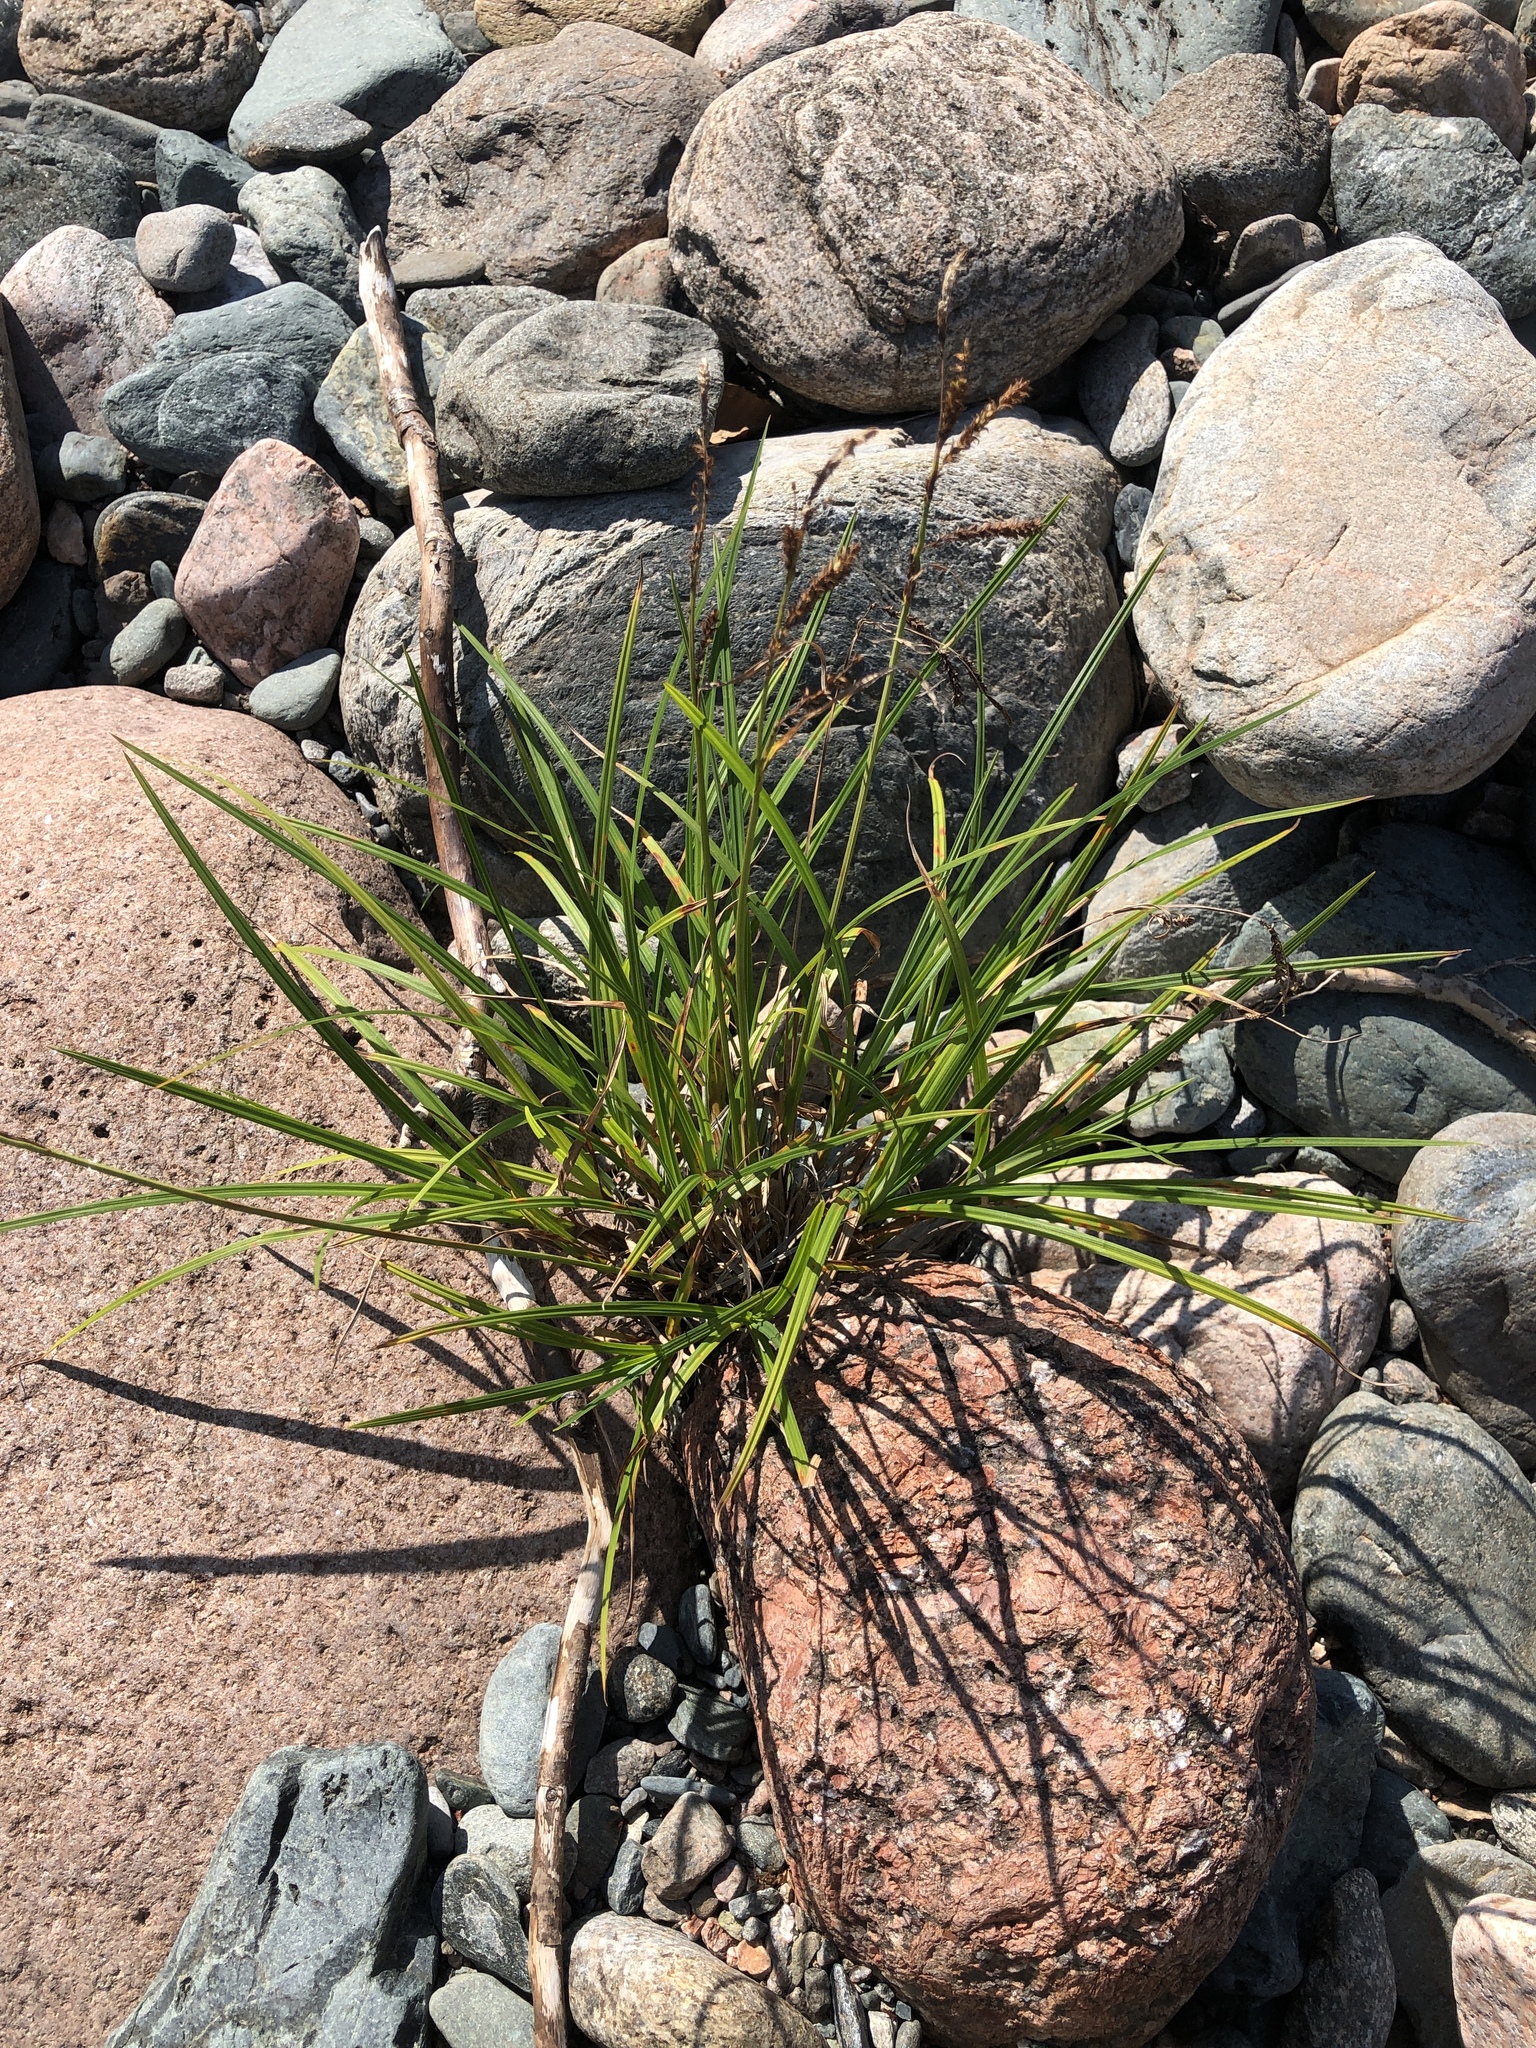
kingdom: Plantae
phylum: Tracheophyta
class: Liliopsida
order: Poales
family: Cyperaceae
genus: Carex
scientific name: Carex torta
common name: Twisted sedge
